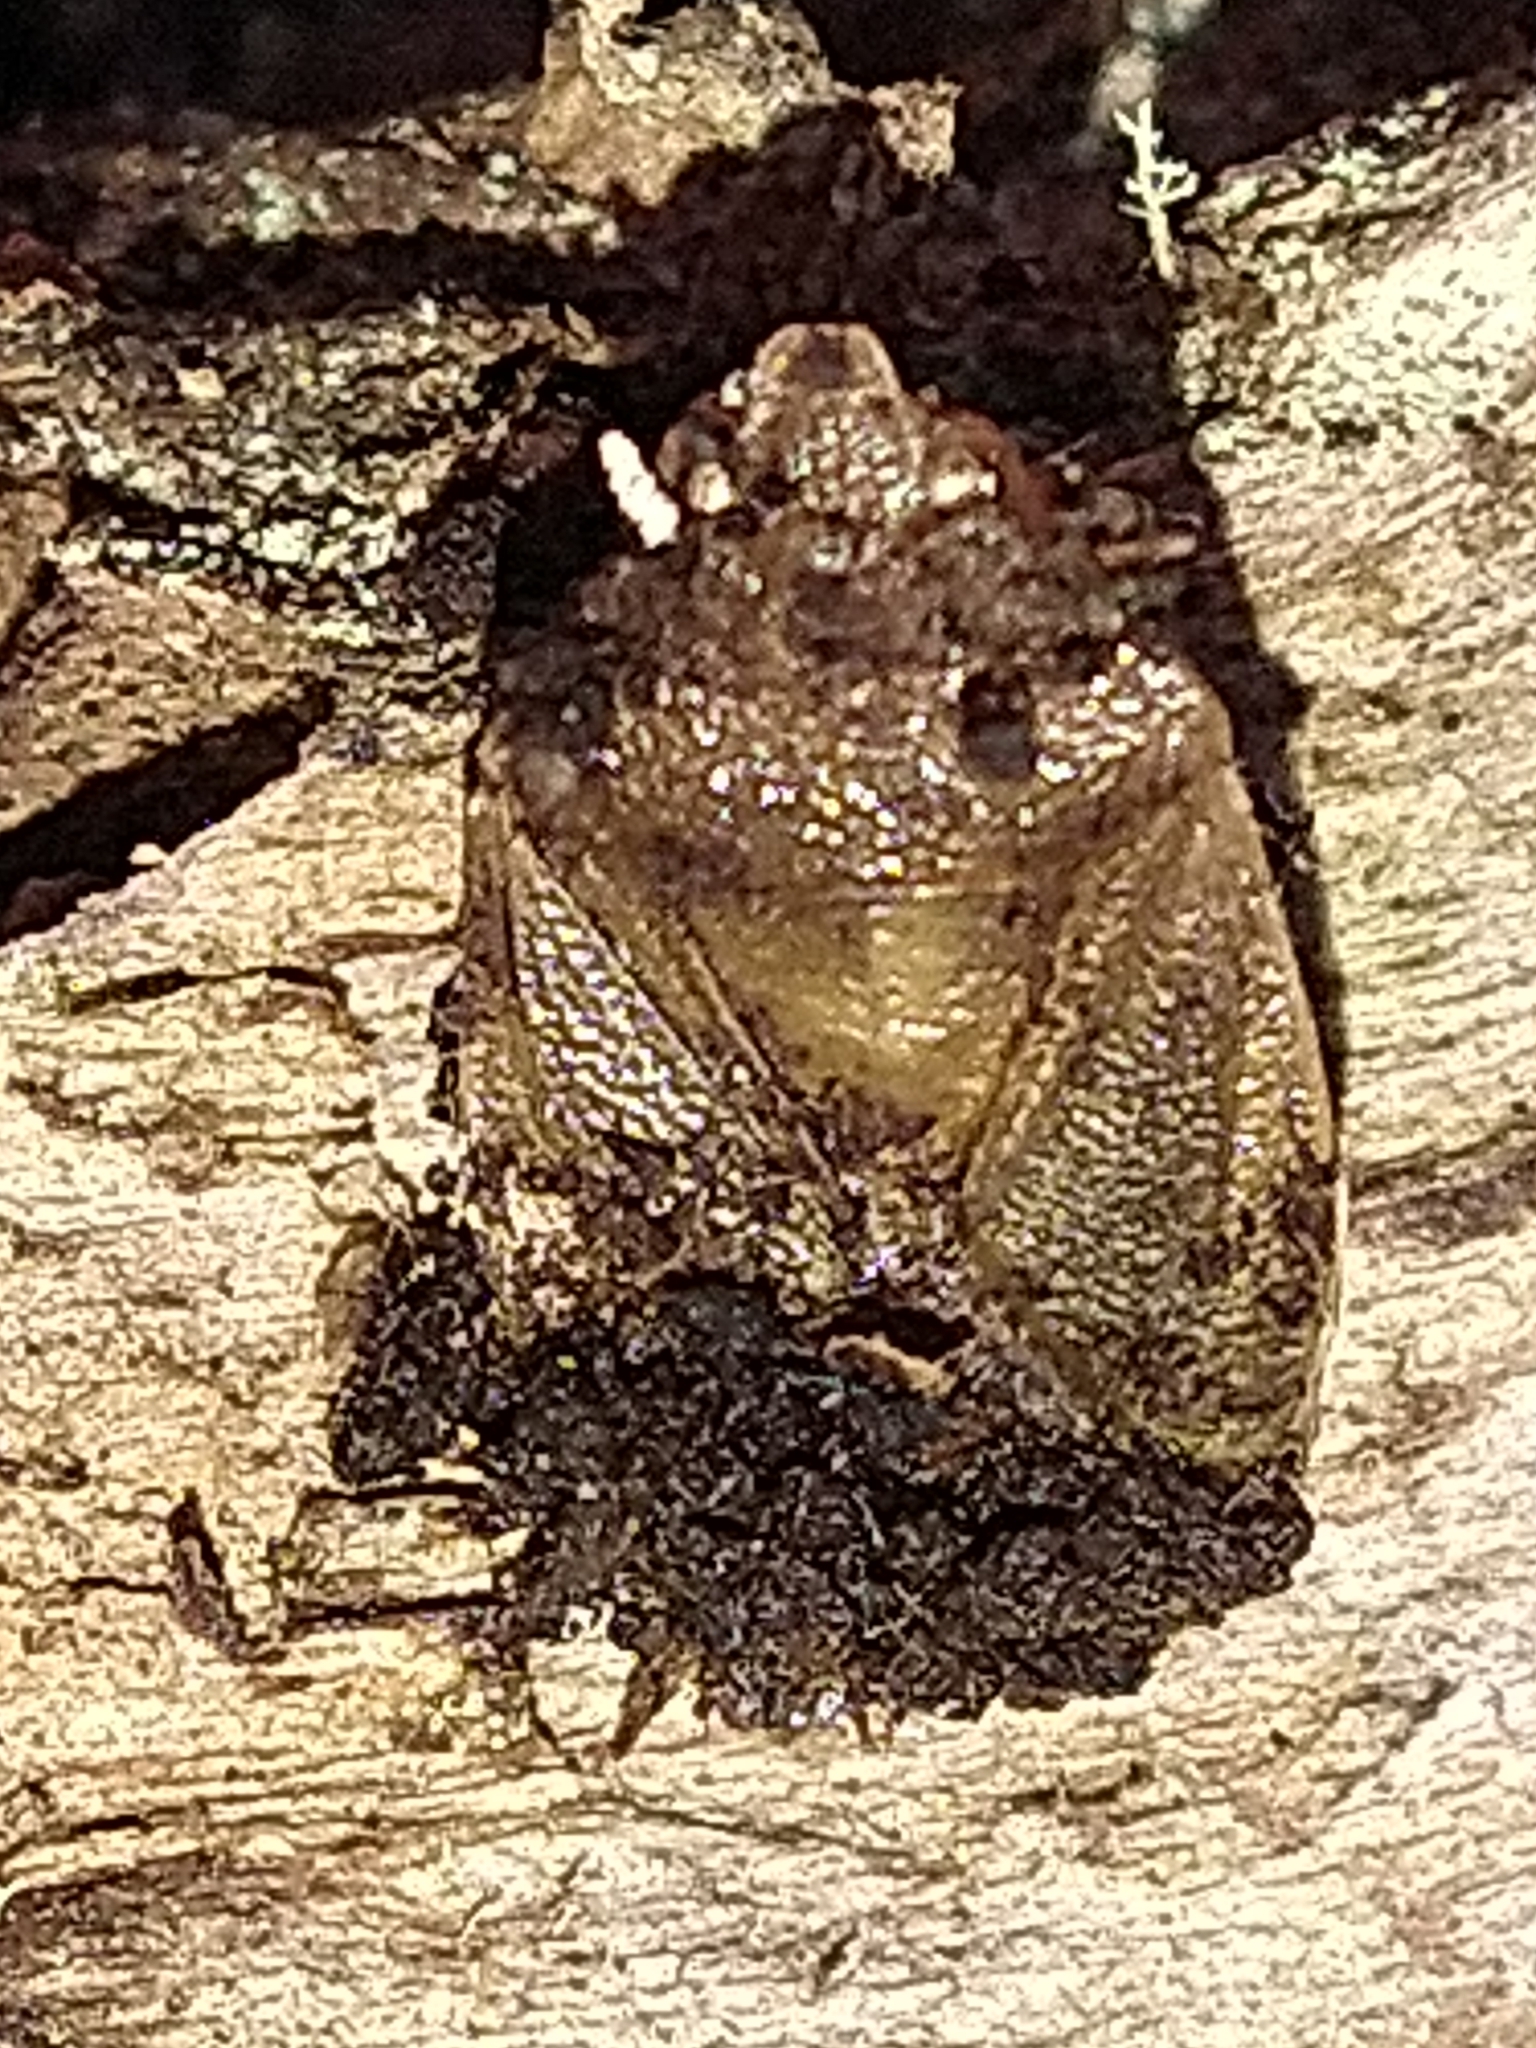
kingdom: Animalia
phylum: Arthropoda
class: Insecta
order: Hemiptera
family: Acanthosomatidae
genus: Sinopla
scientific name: Sinopla perpunctatus
